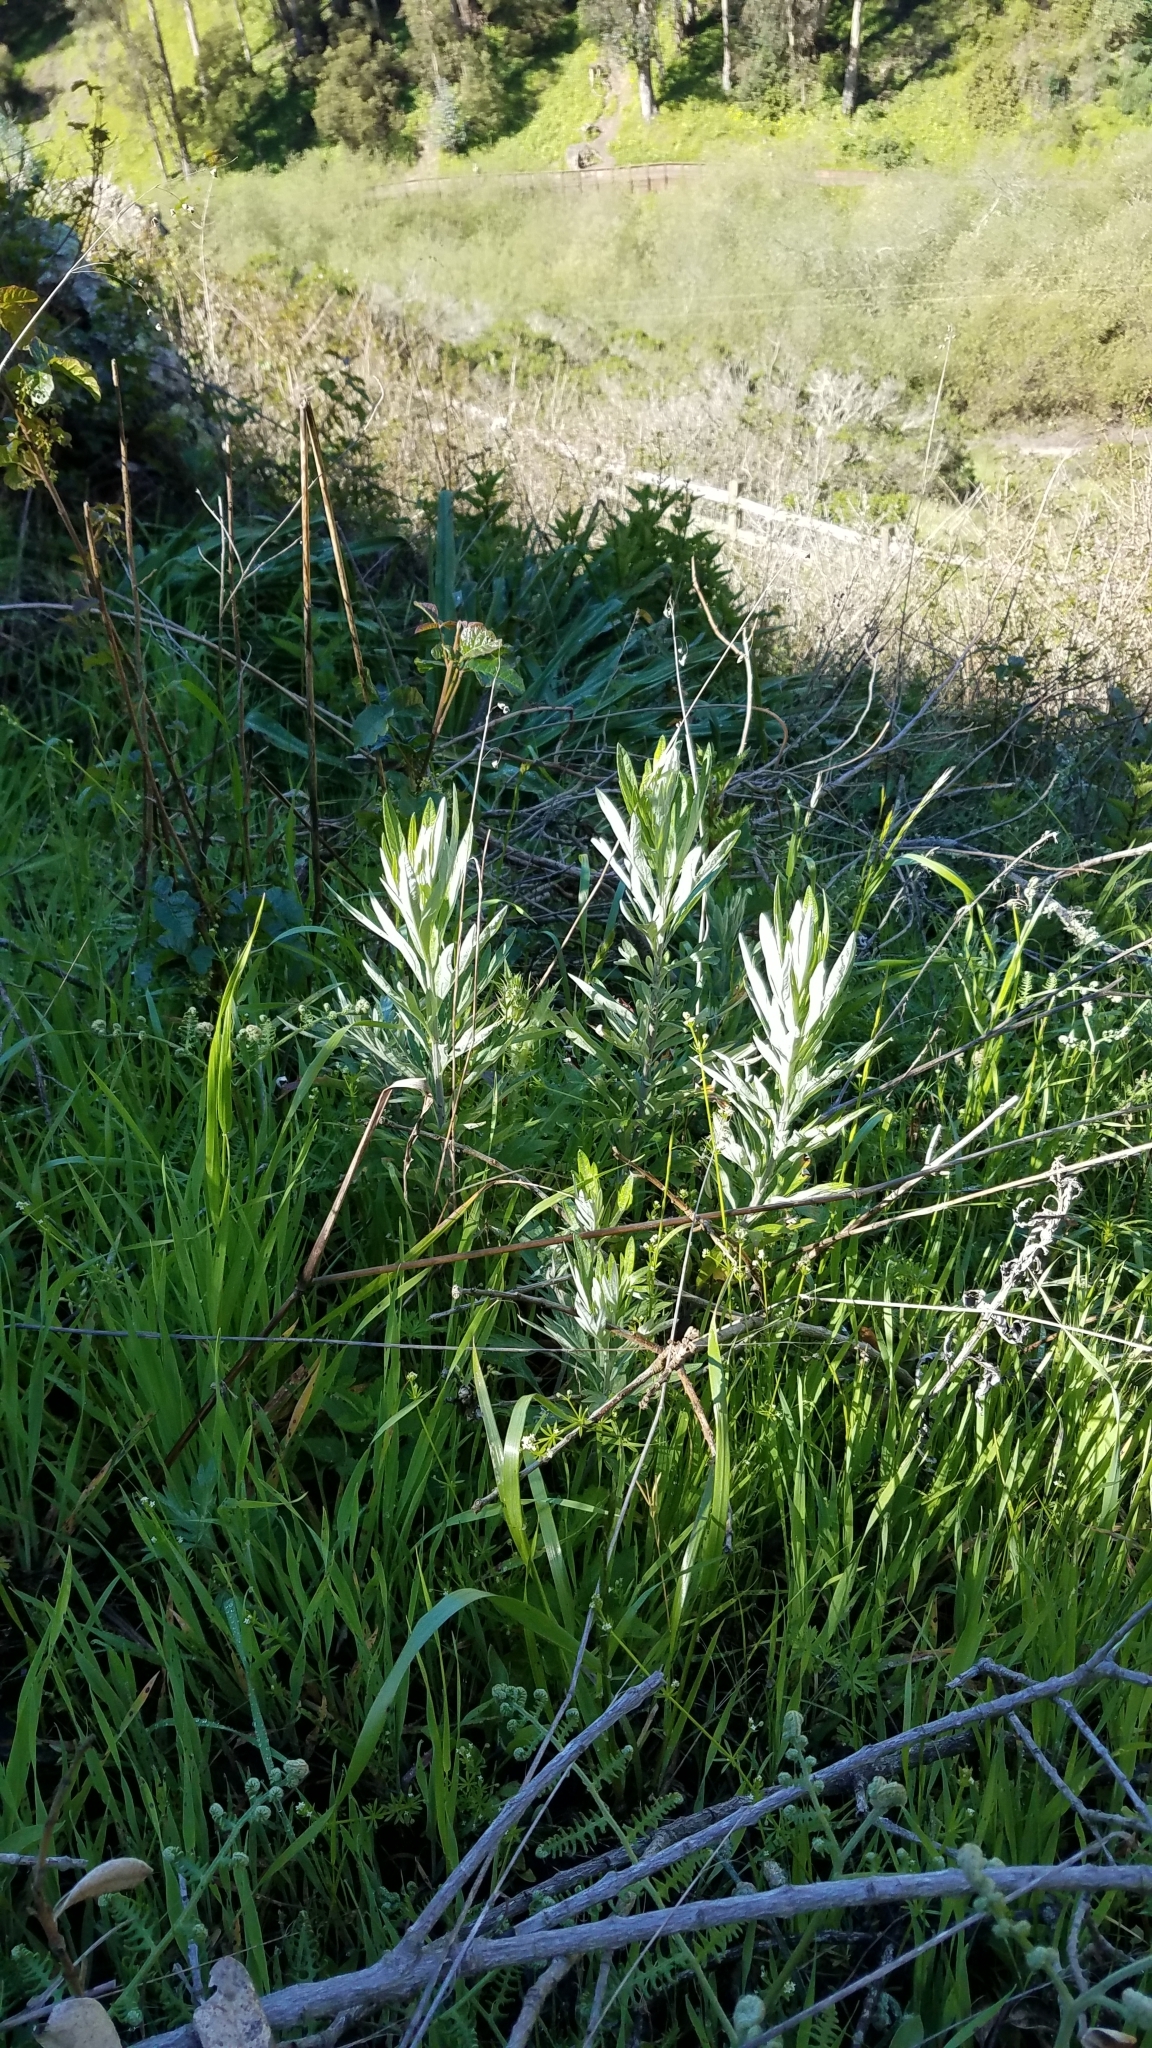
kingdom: Plantae
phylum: Tracheophyta
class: Magnoliopsida
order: Asterales
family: Asteraceae
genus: Artemisia
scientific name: Artemisia douglasiana
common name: Northwest mugwort
